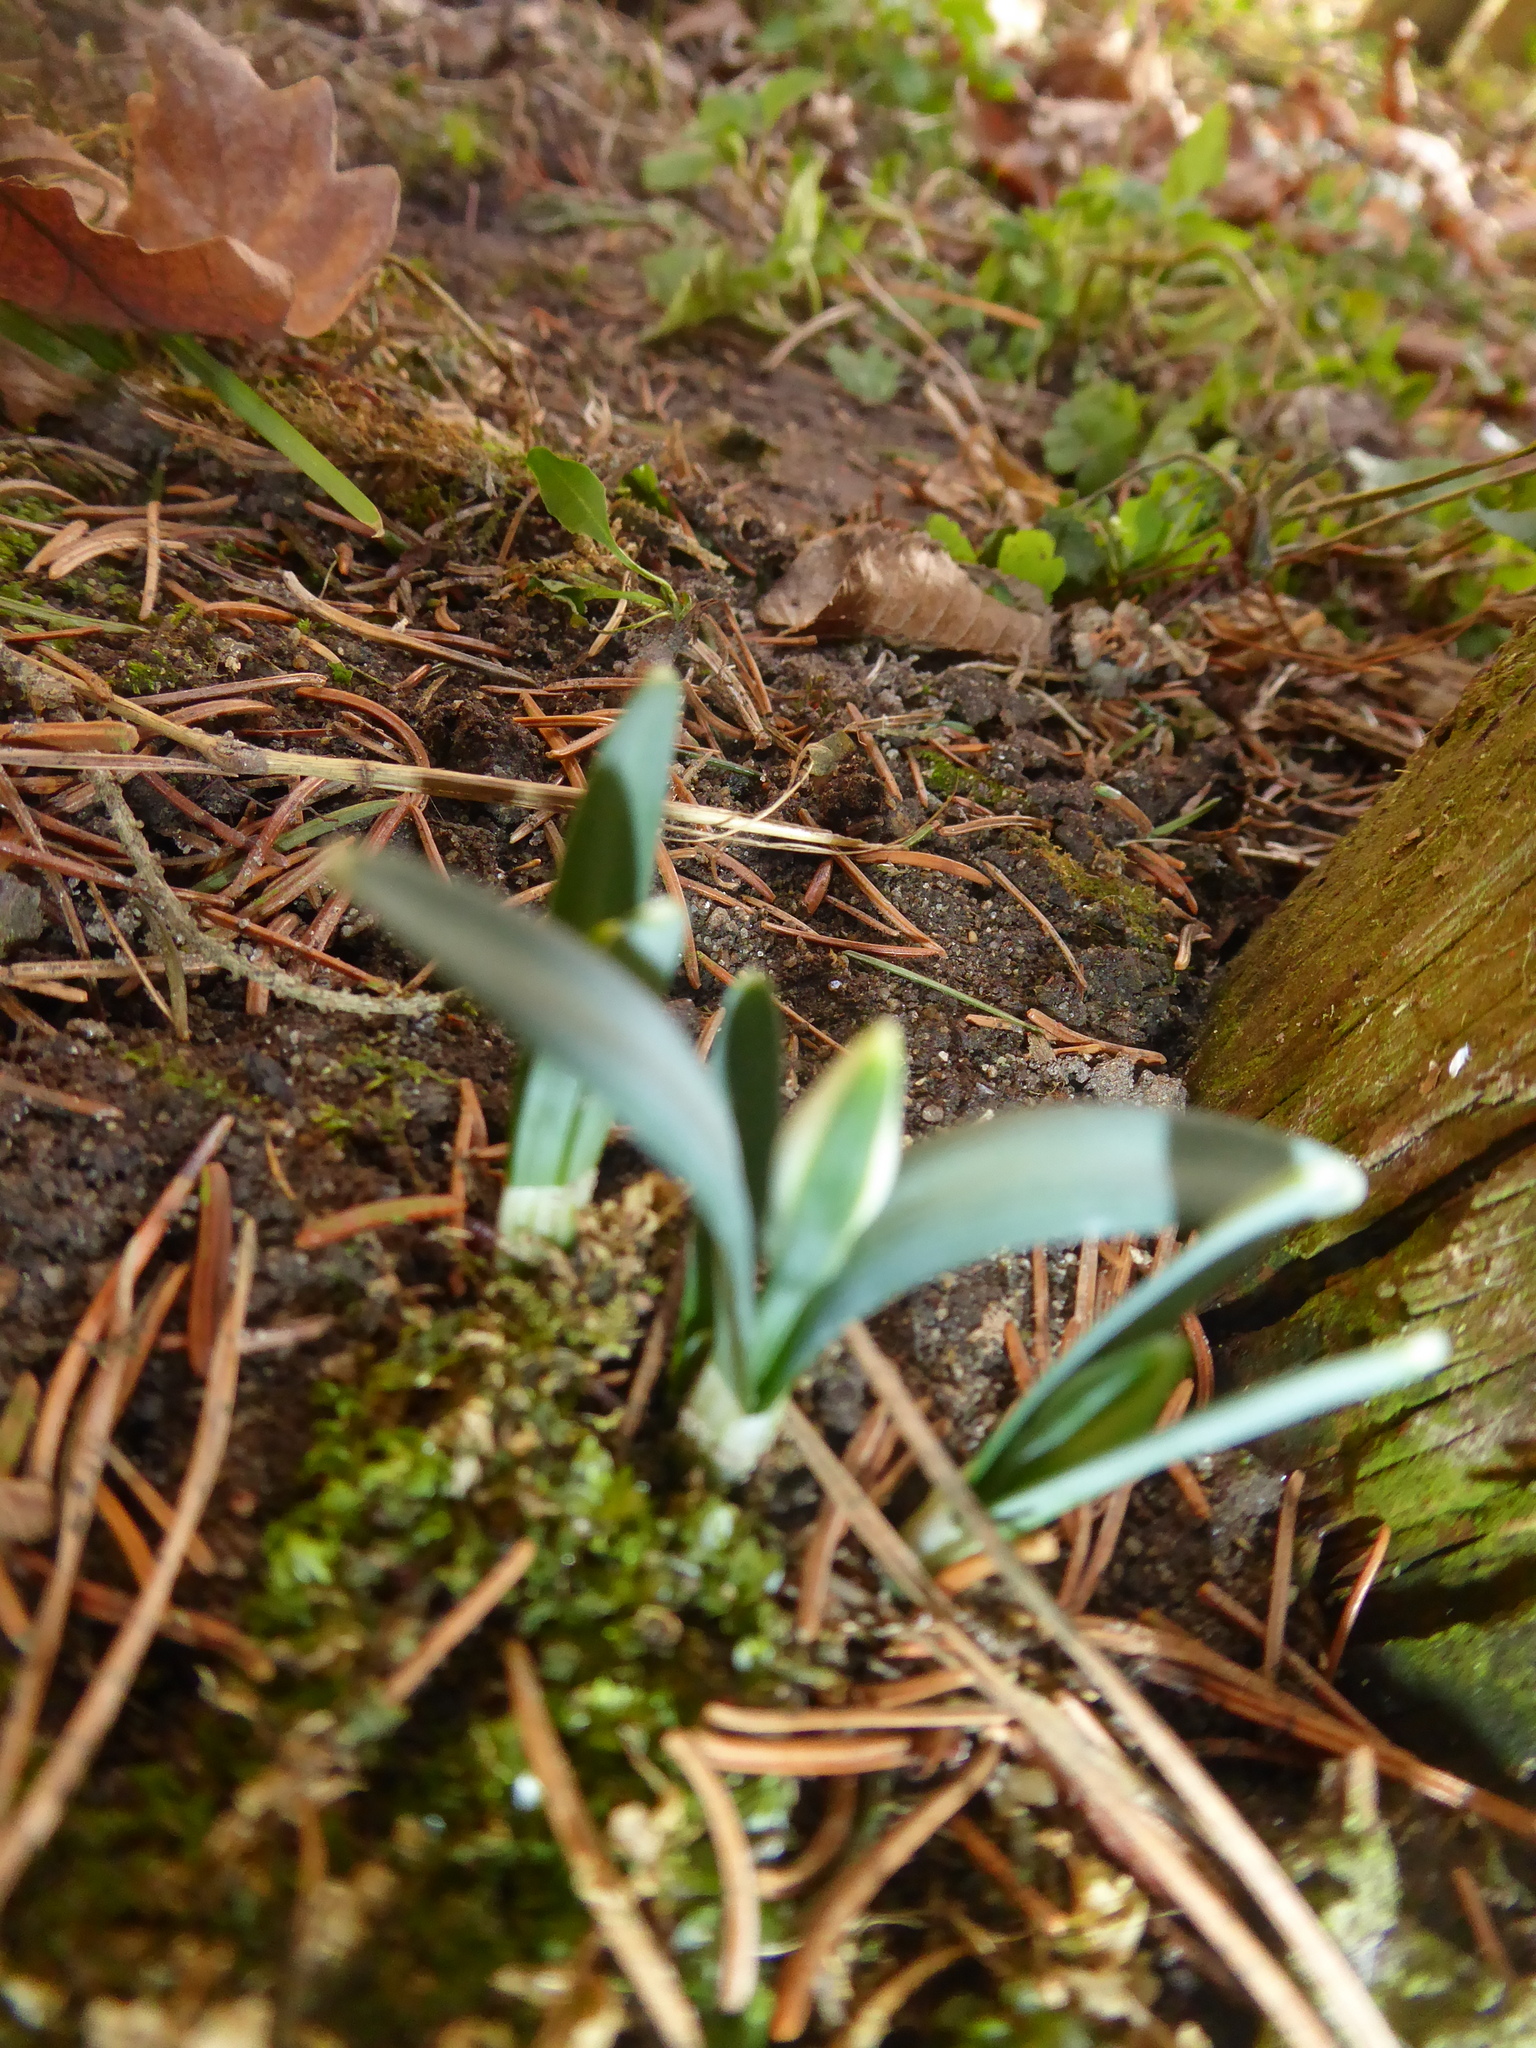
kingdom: Plantae
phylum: Tracheophyta
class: Liliopsida
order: Asparagales
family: Amaryllidaceae
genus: Galanthus
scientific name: Galanthus nivalis
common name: Snowdrop
